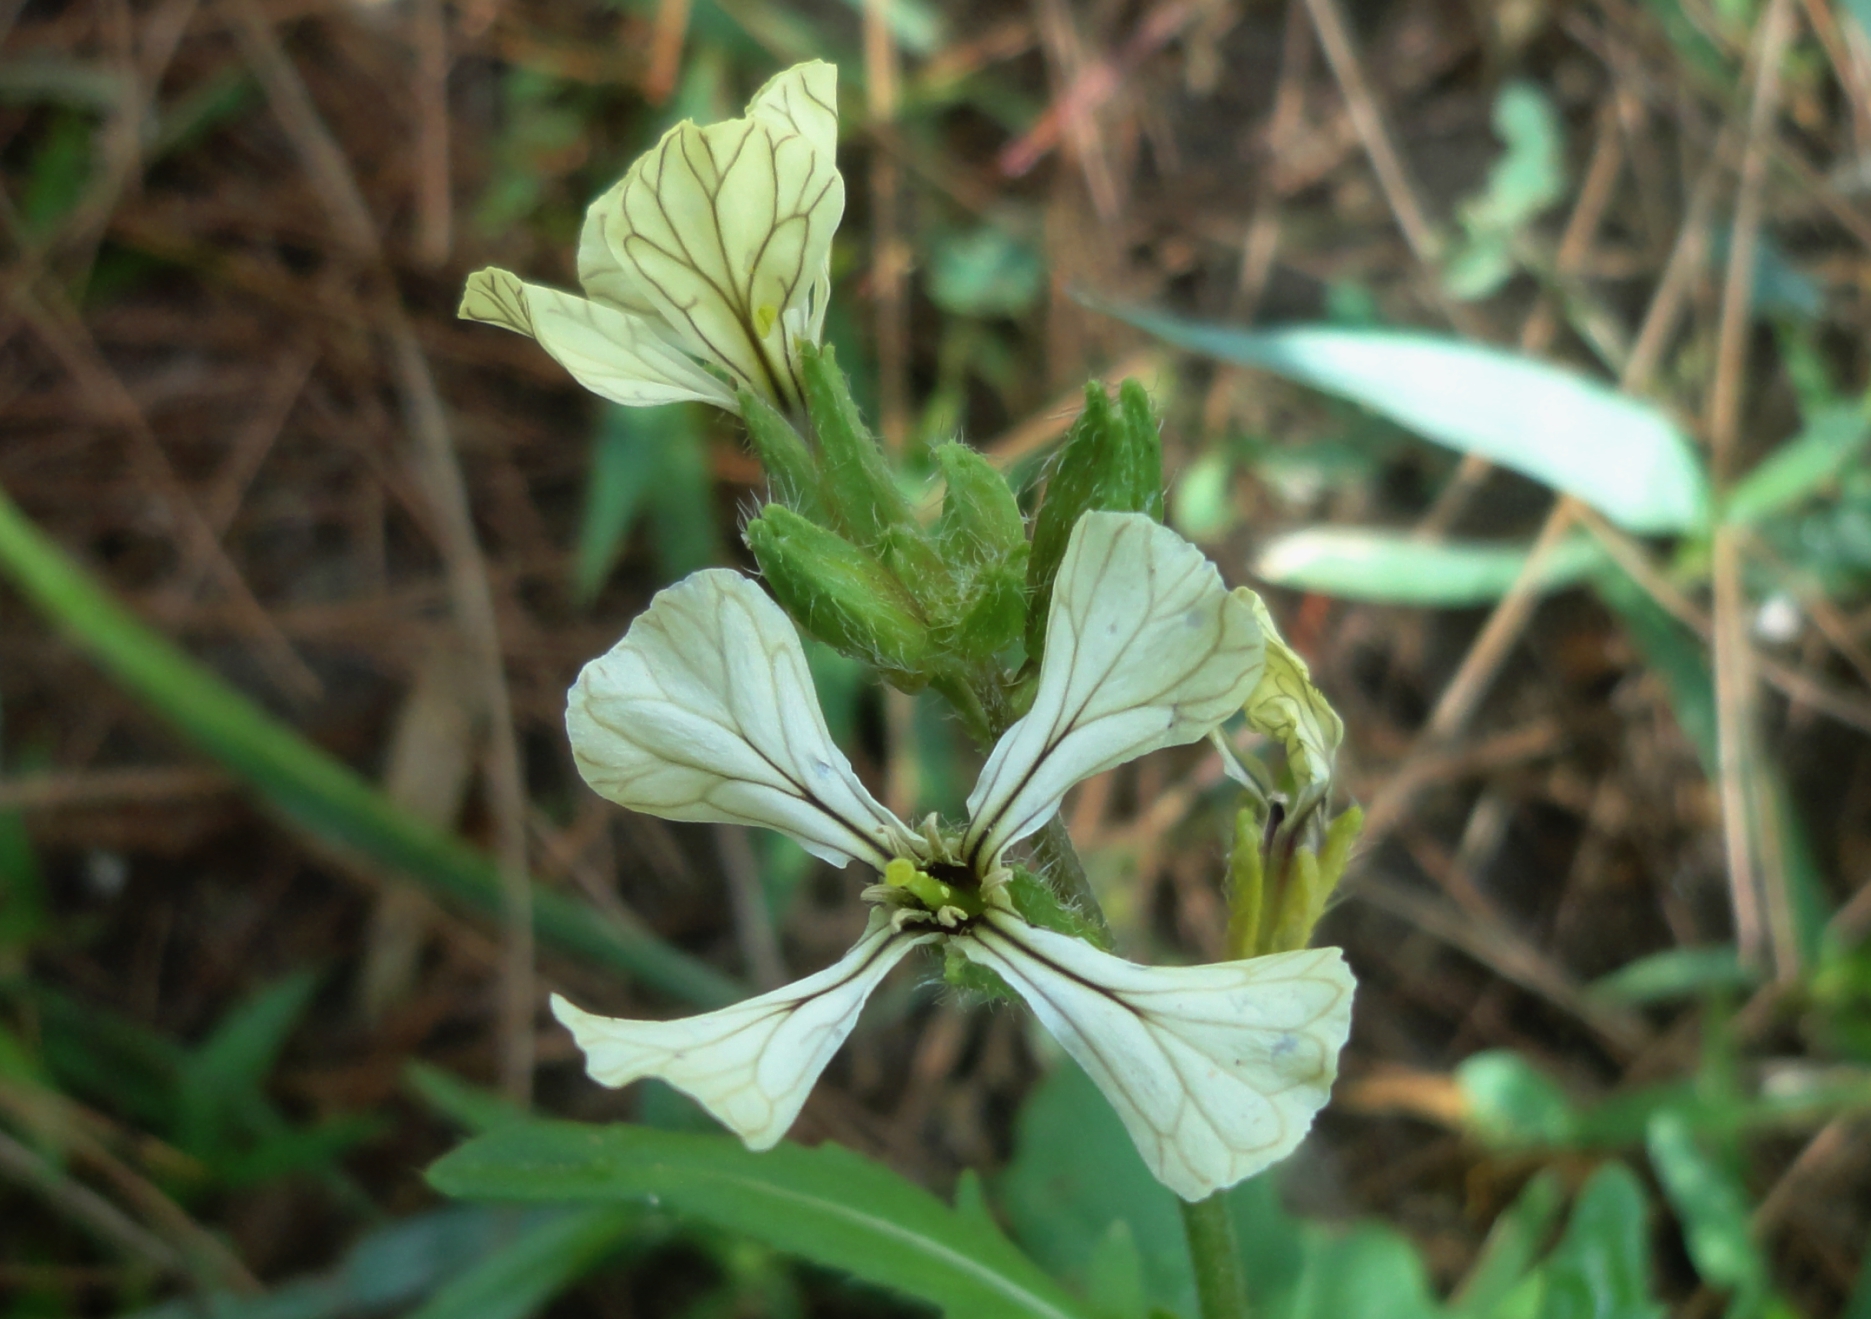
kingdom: Plantae
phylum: Tracheophyta
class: Magnoliopsida
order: Brassicales
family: Brassicaceae
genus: Eruca
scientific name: Eruca vesicaria
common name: Garden rocket
